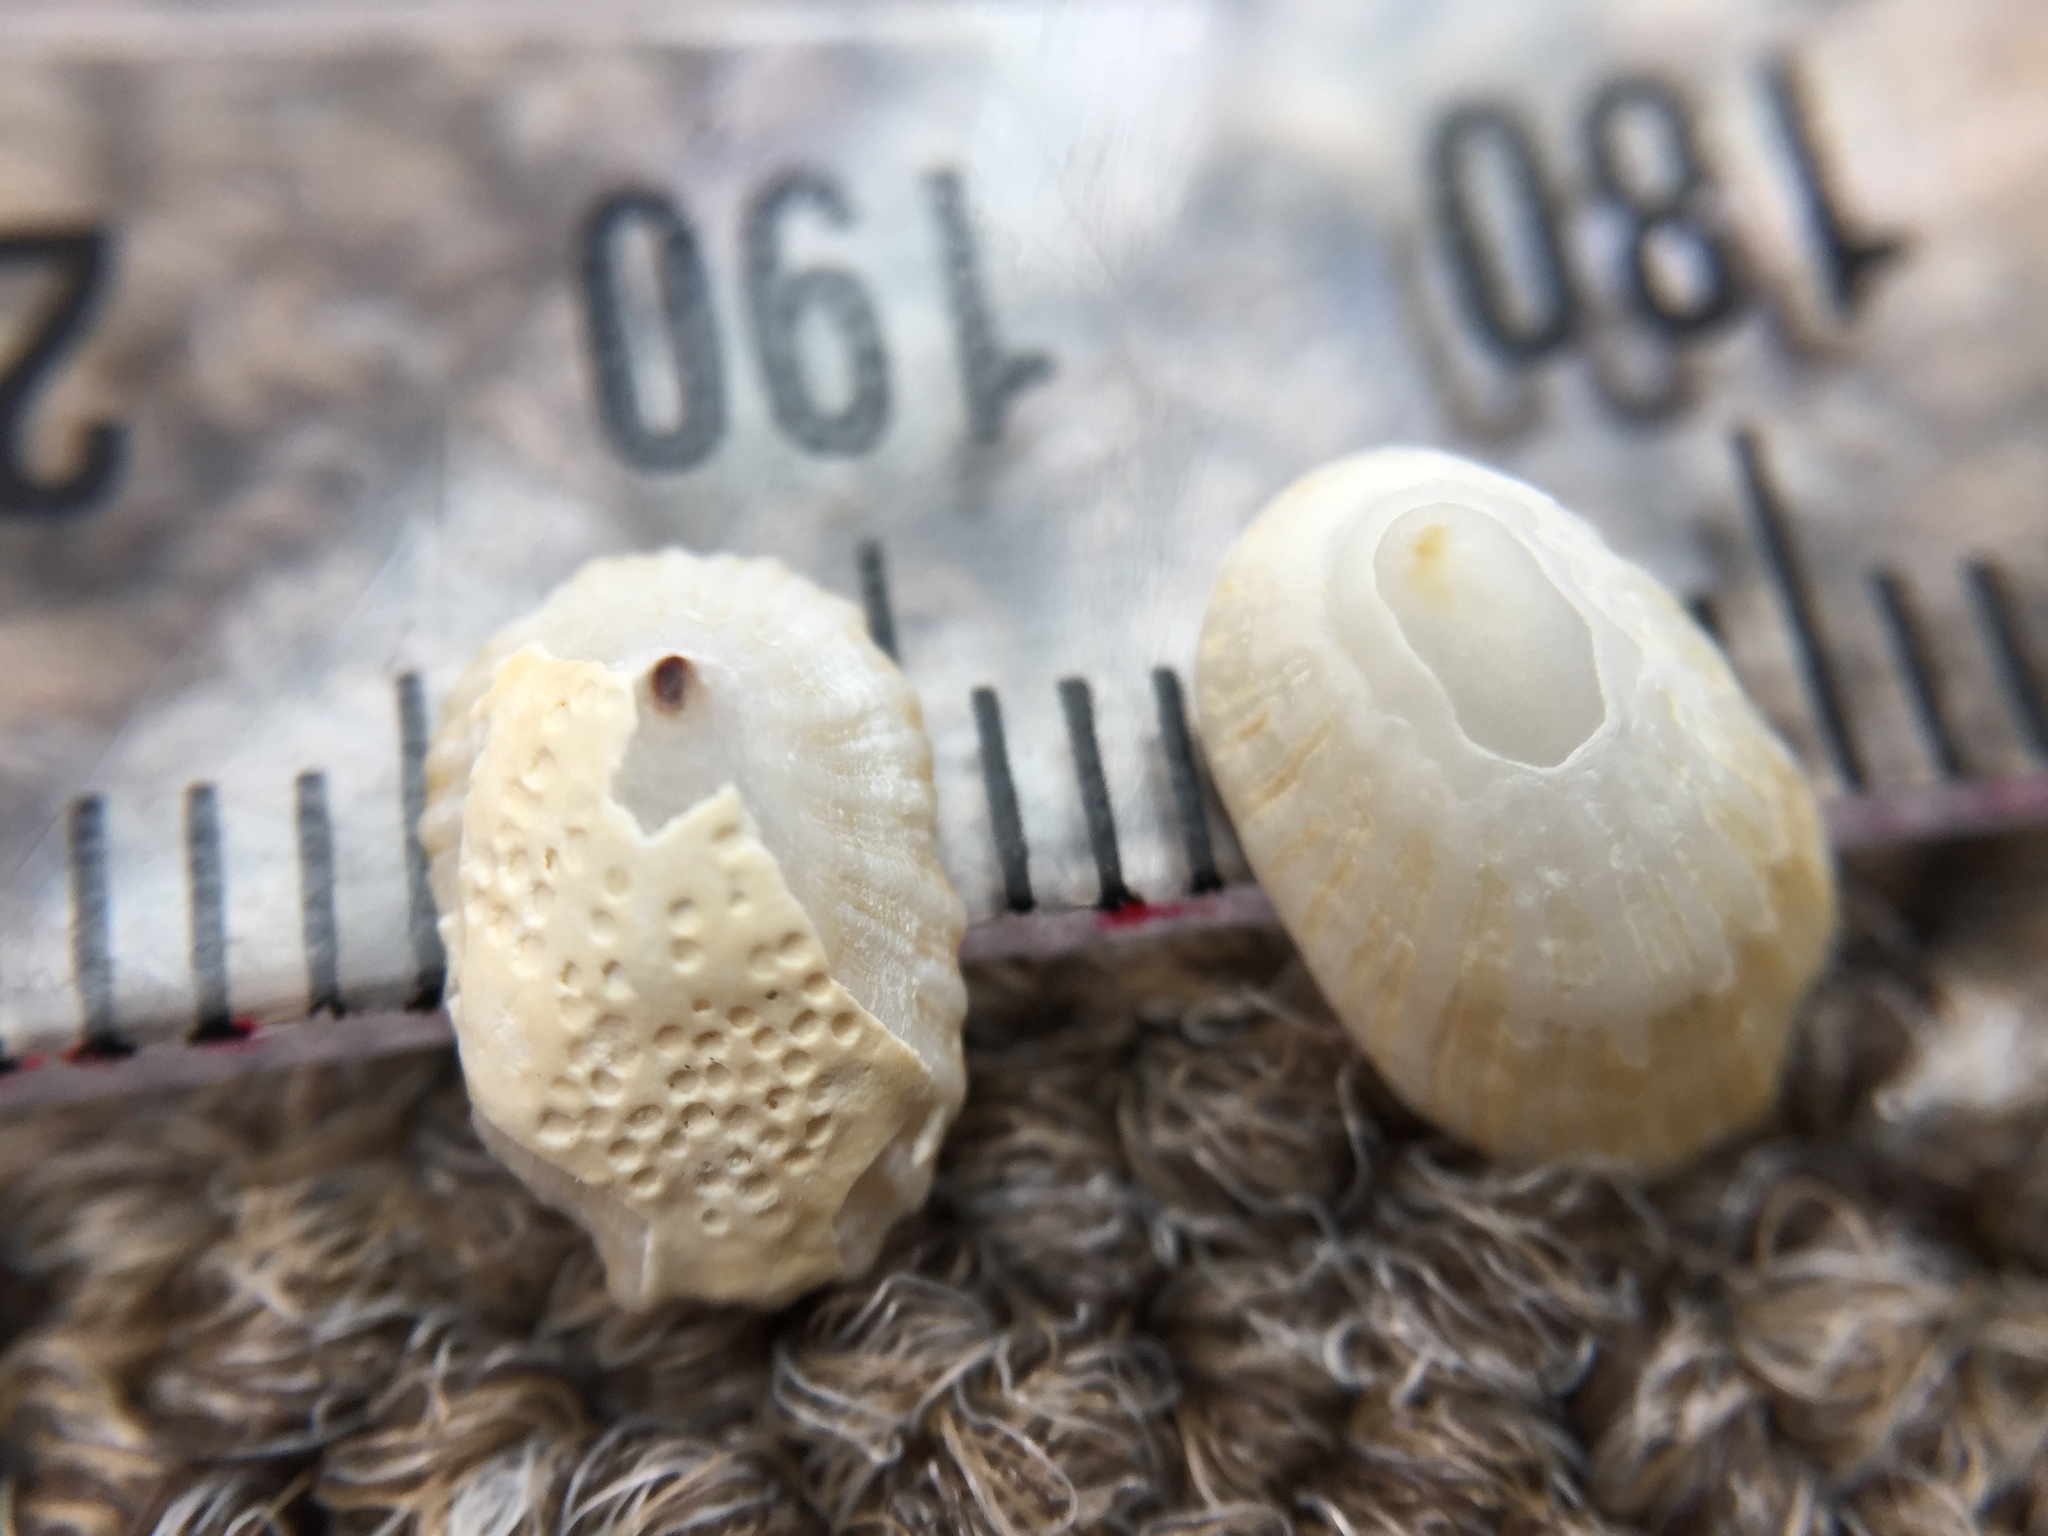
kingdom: Animalia
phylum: Mollusca
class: Gastropoda
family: Lottiidae
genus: Radiacmea
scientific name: Radiacmea inconspicua
